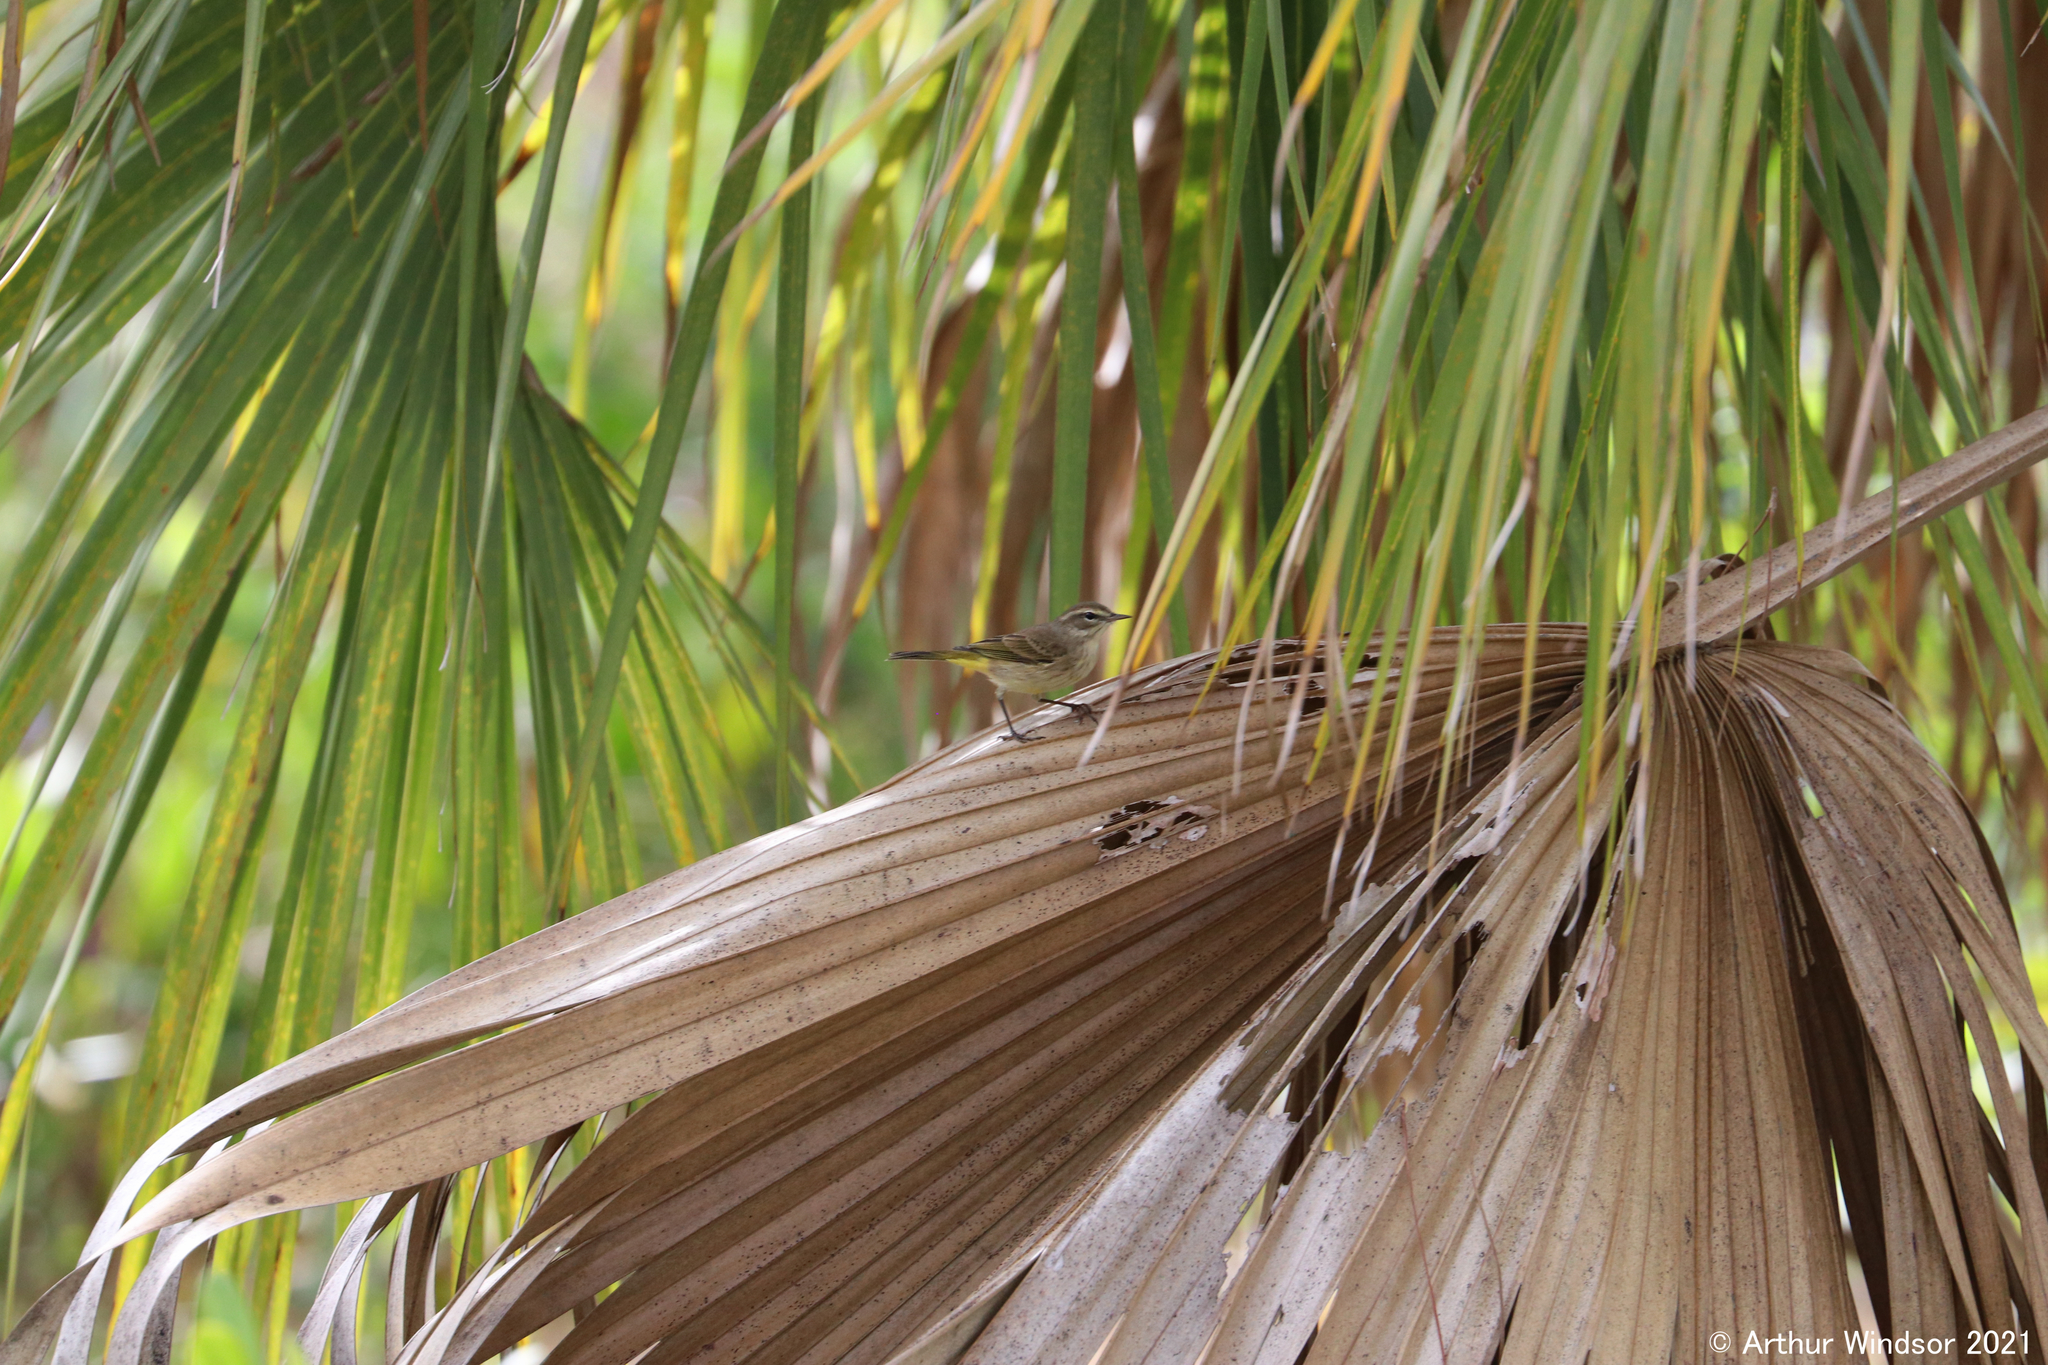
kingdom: Animalia
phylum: Chordata
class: Aves
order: Passeriformes
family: Parulidae
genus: Setophaga
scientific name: Setophaga palmarum
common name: Palm warbler
